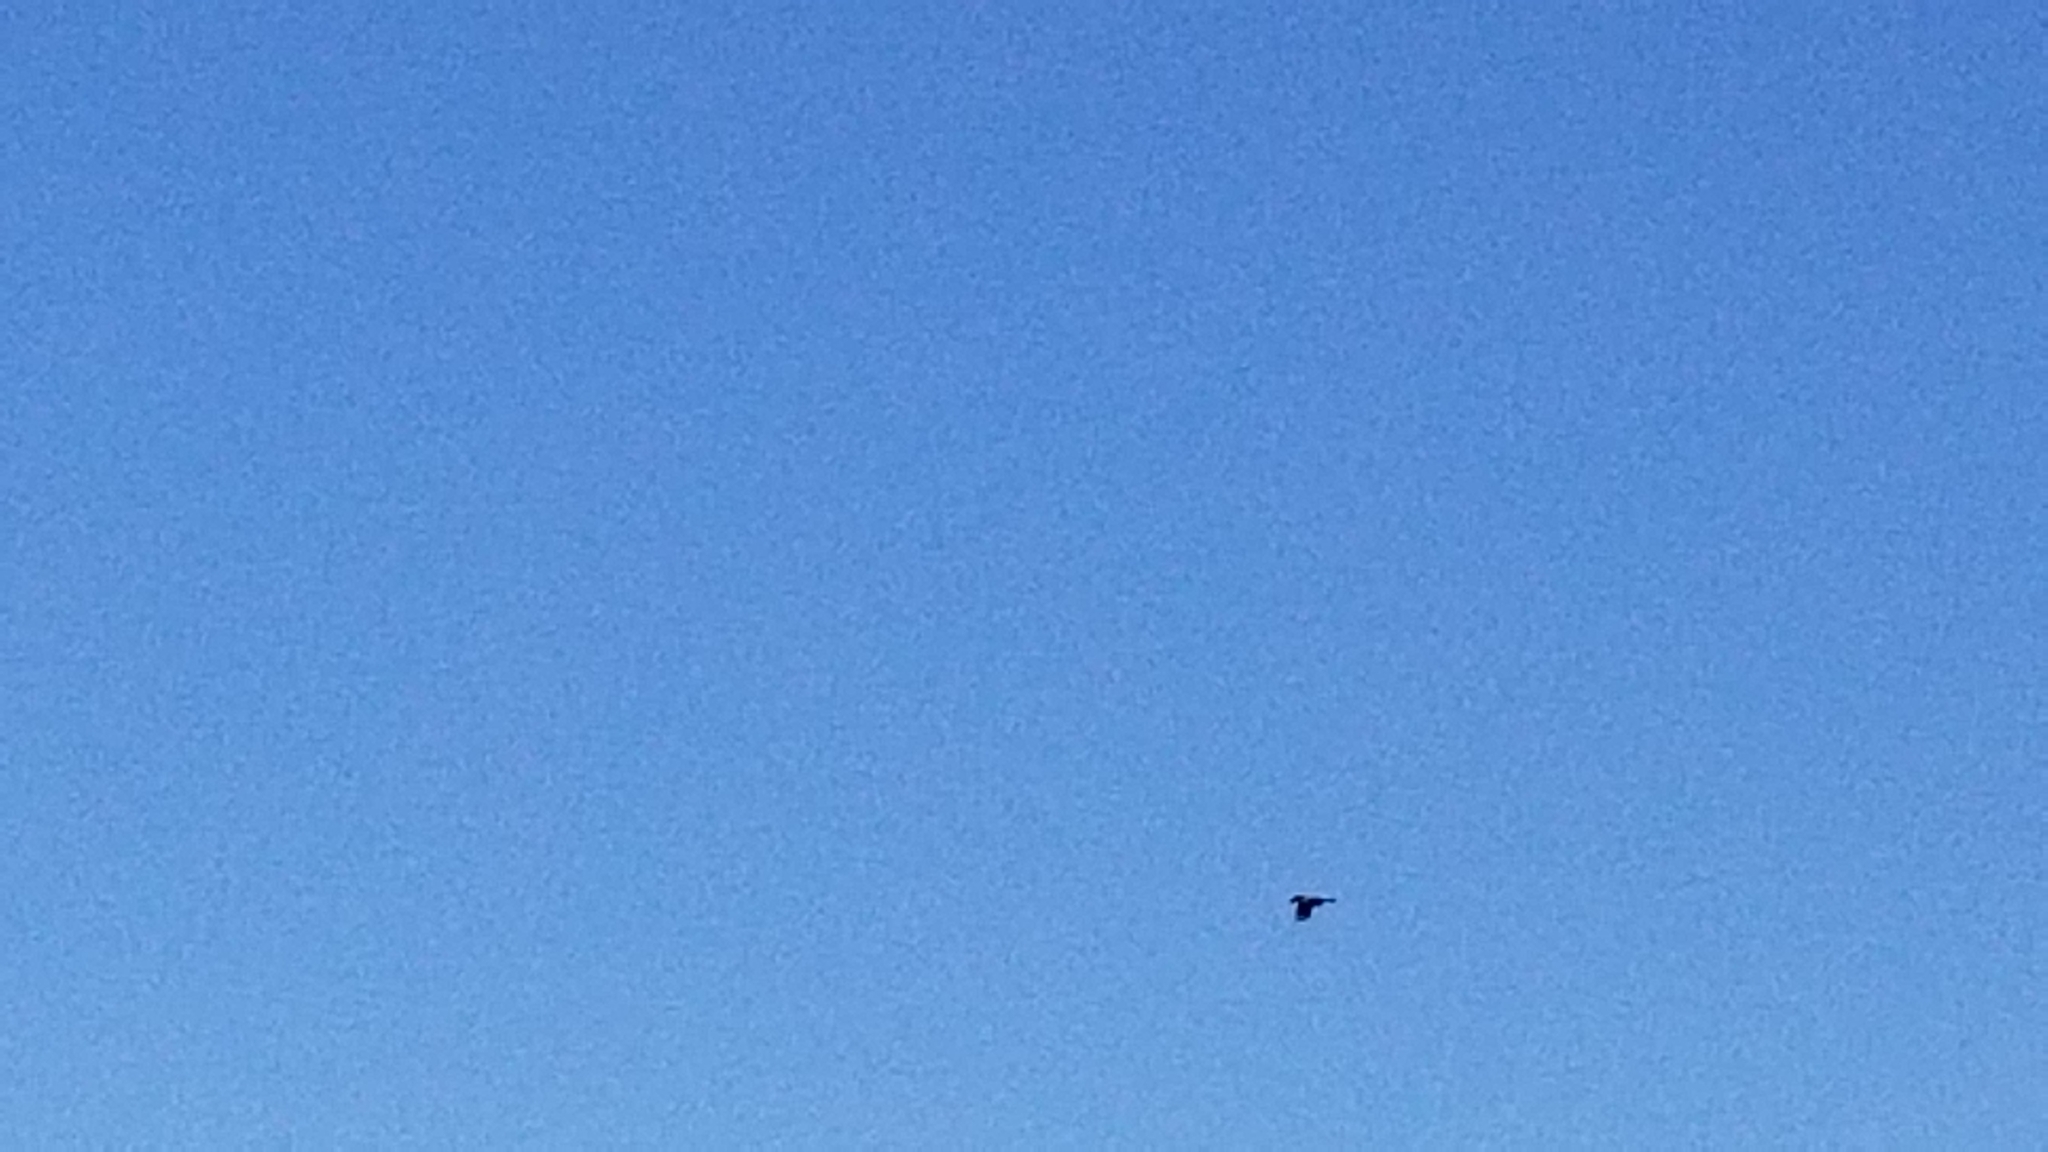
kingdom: Animalia
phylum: Chordata
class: Aves
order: Passeriformes
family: Corvidae
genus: Cyanocitta
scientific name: Cyanocitta stelleri
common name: Steller's jay
